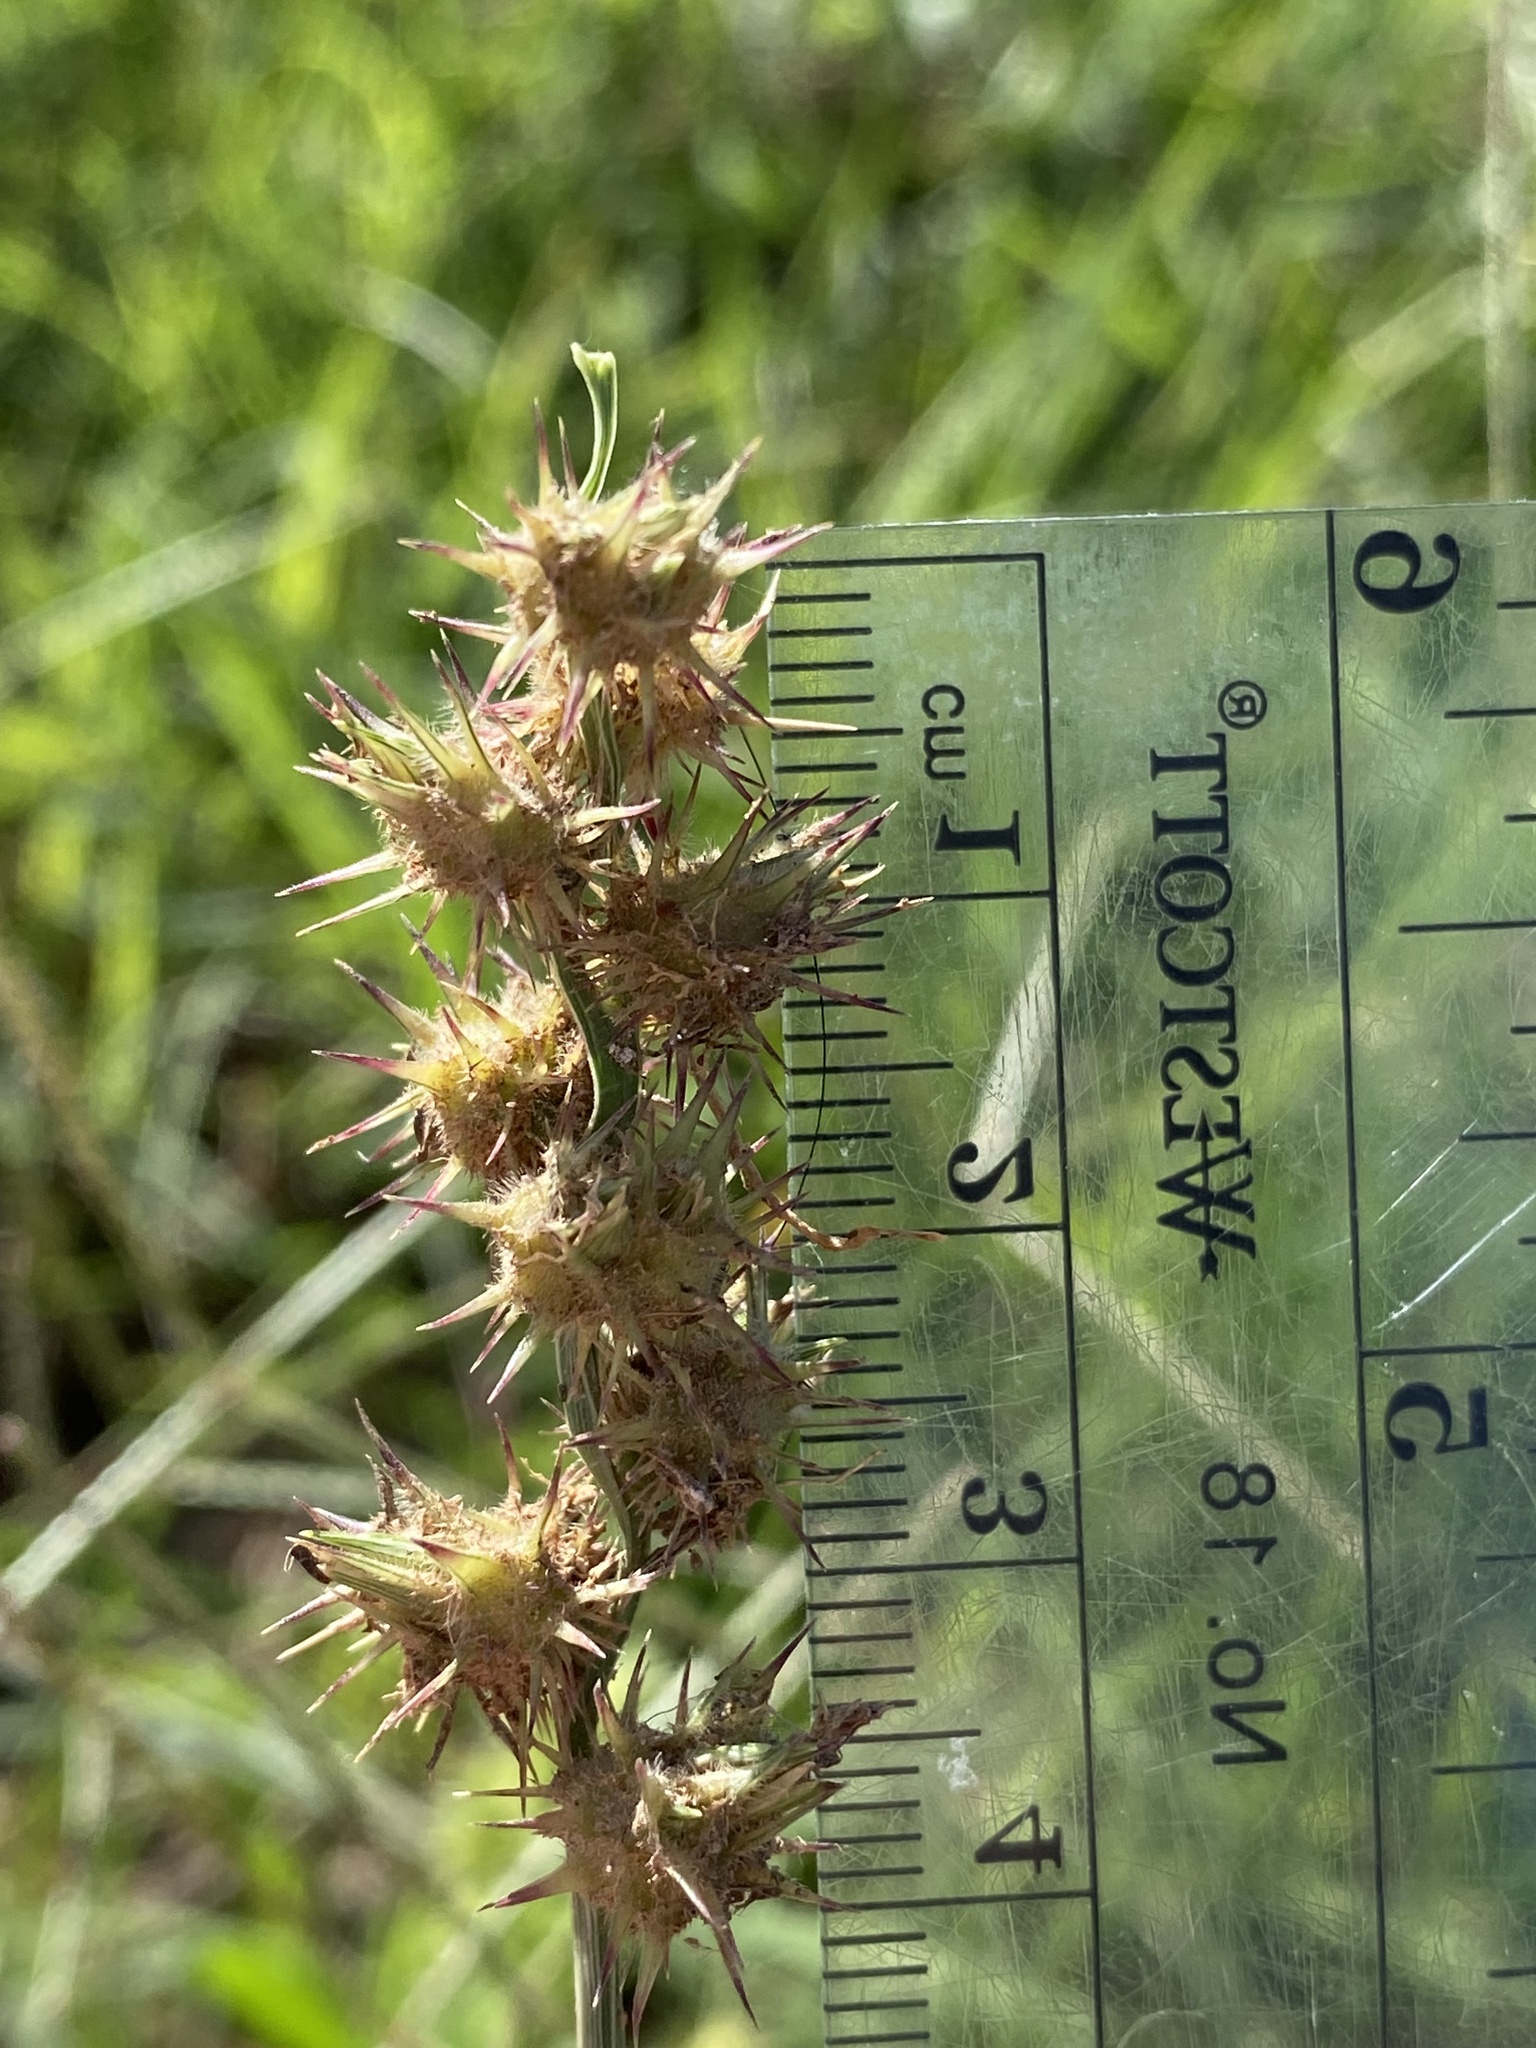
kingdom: Plantae
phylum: Tracheophyta
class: Liliopsida
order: Poales
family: Poaceae
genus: Cenchrus
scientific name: Cenchrus spinifex
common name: Coast sandbur
